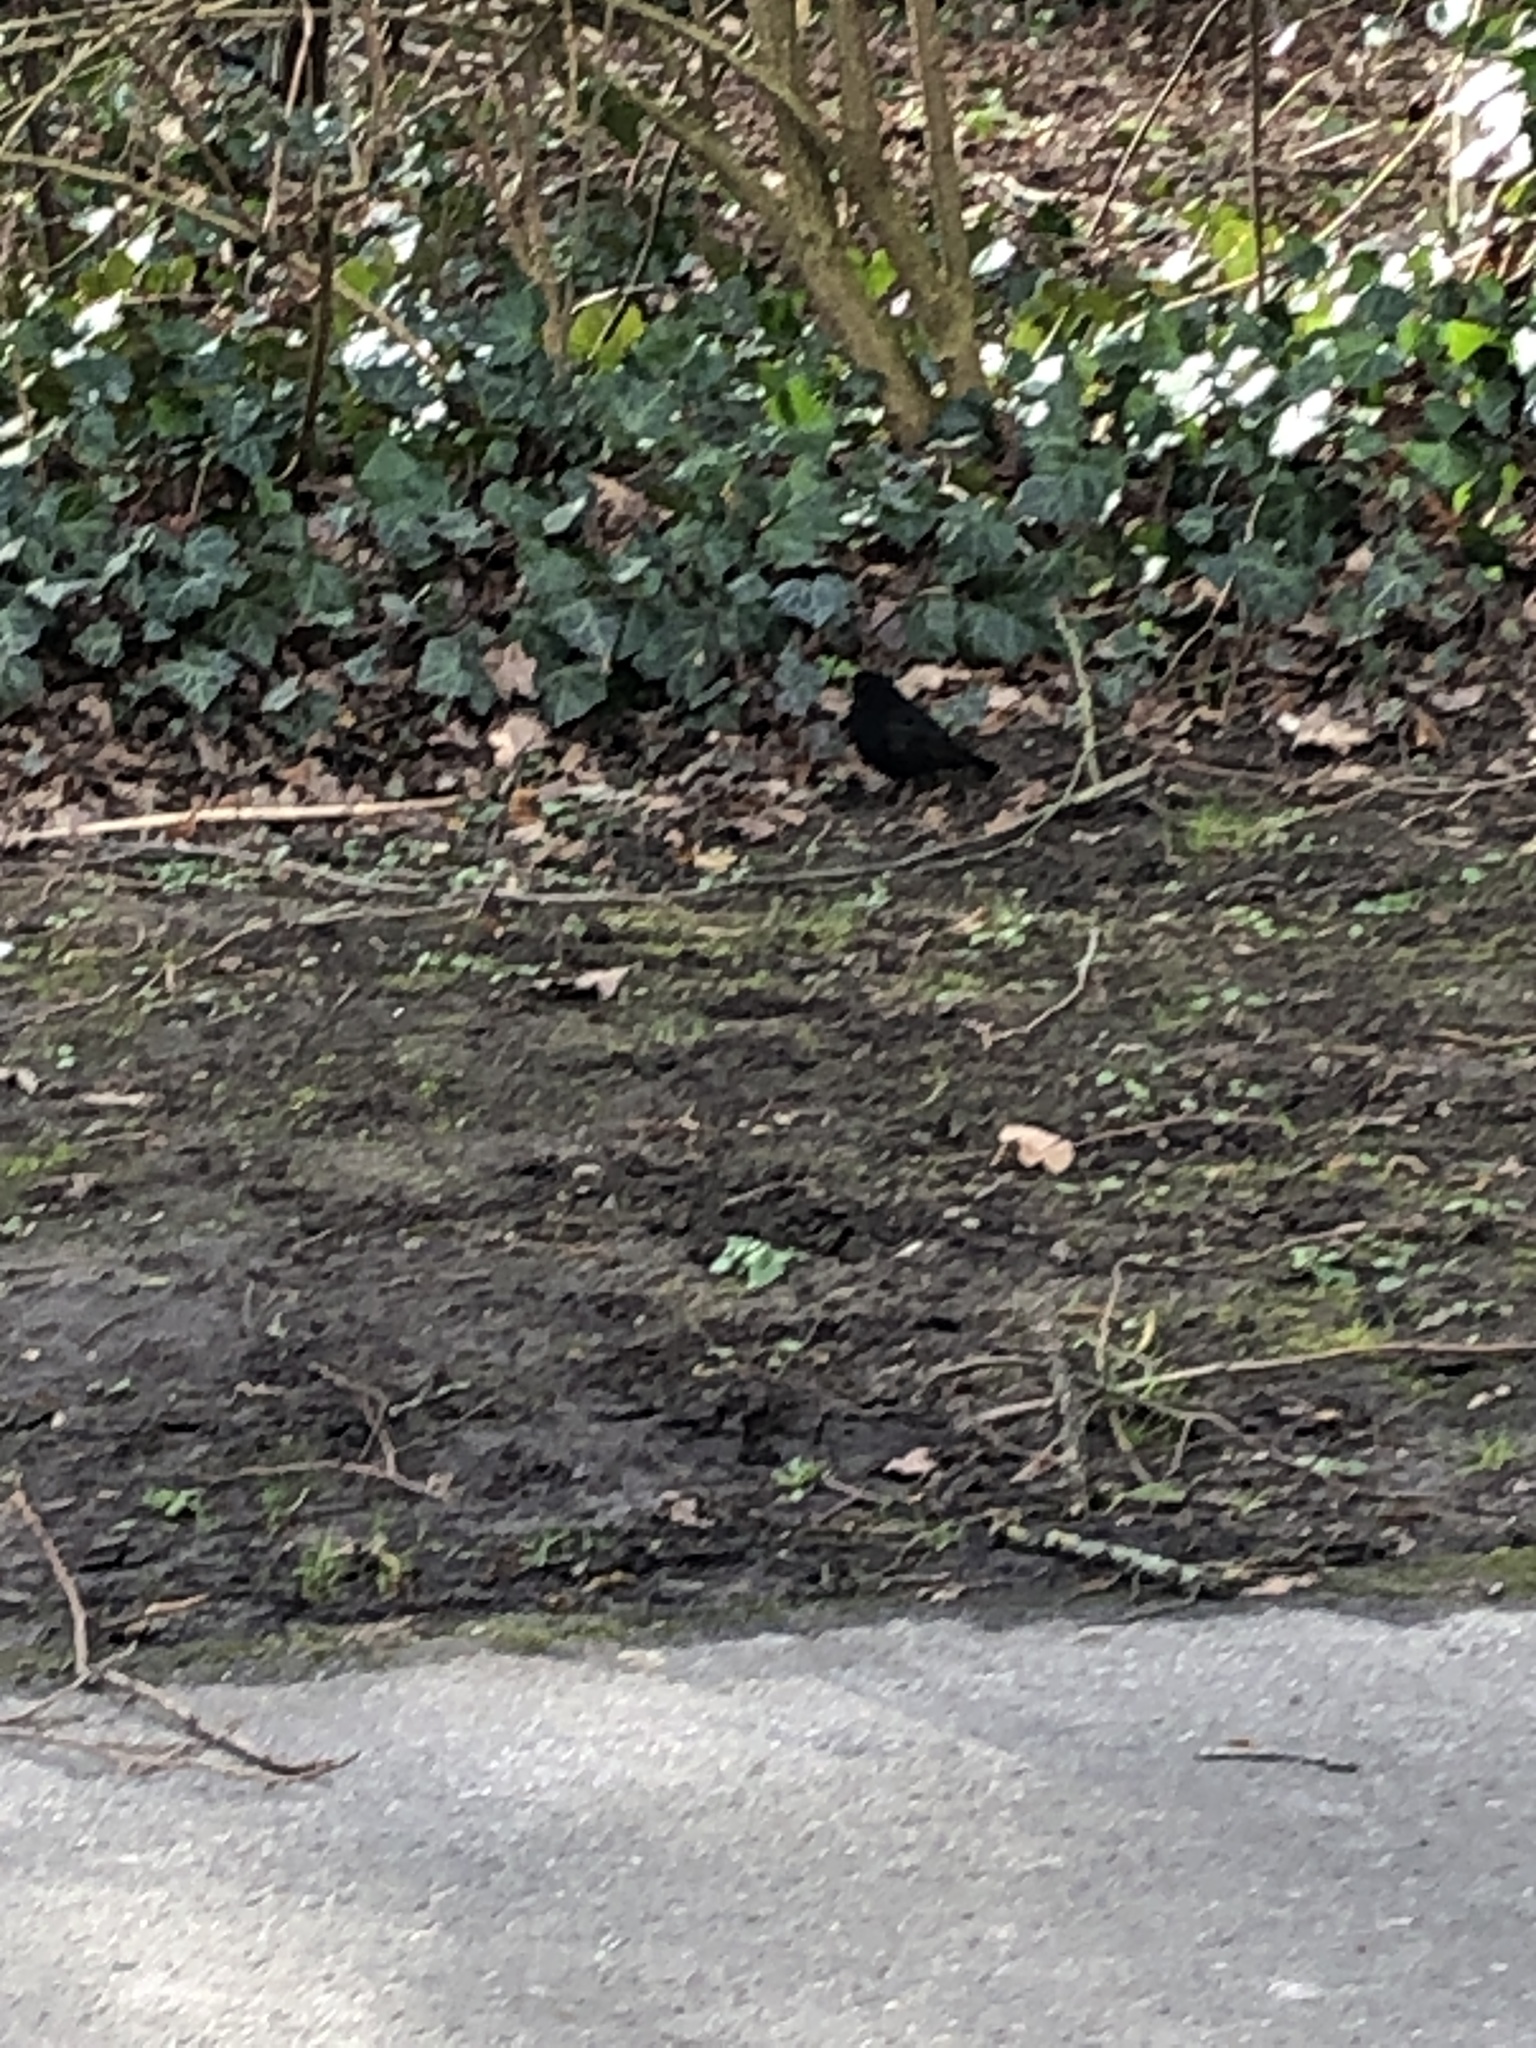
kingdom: Animalia
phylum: Chordata
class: Aves
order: Passeriformes
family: Turdidae
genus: Turdus
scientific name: Turdus merula
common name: Common blackbird
